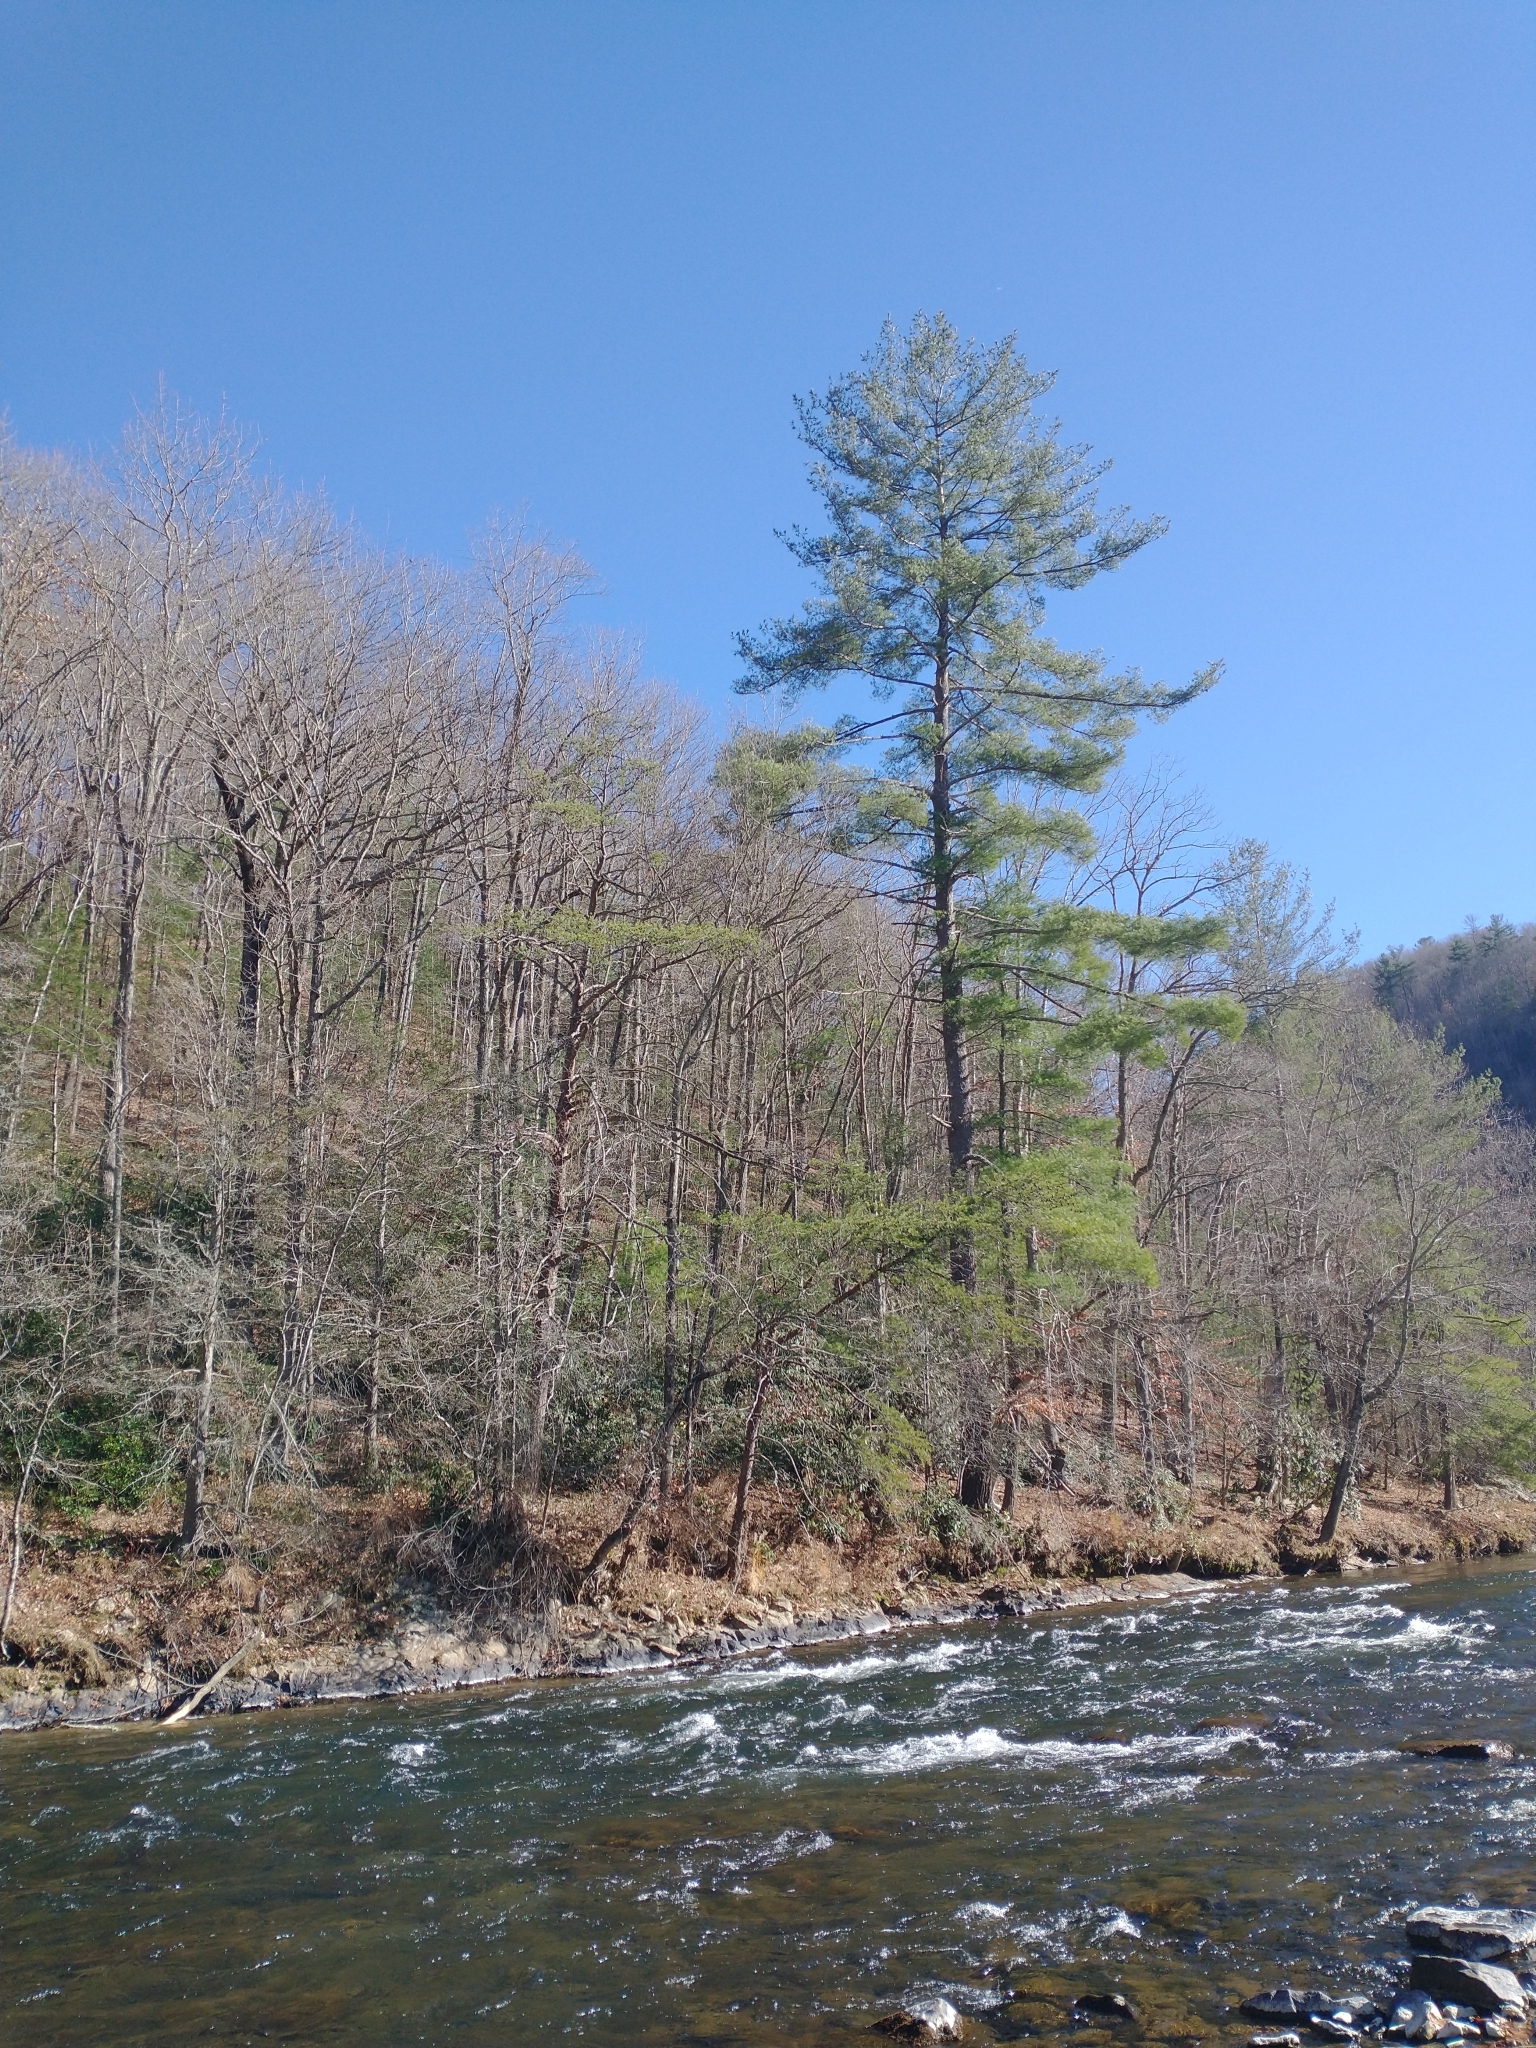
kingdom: Plantae
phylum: Tracheophyta
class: Pinopsida
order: Pinales
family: Pinaceae
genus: Pinus
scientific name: Pinus strobus
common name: Weymouth pine
